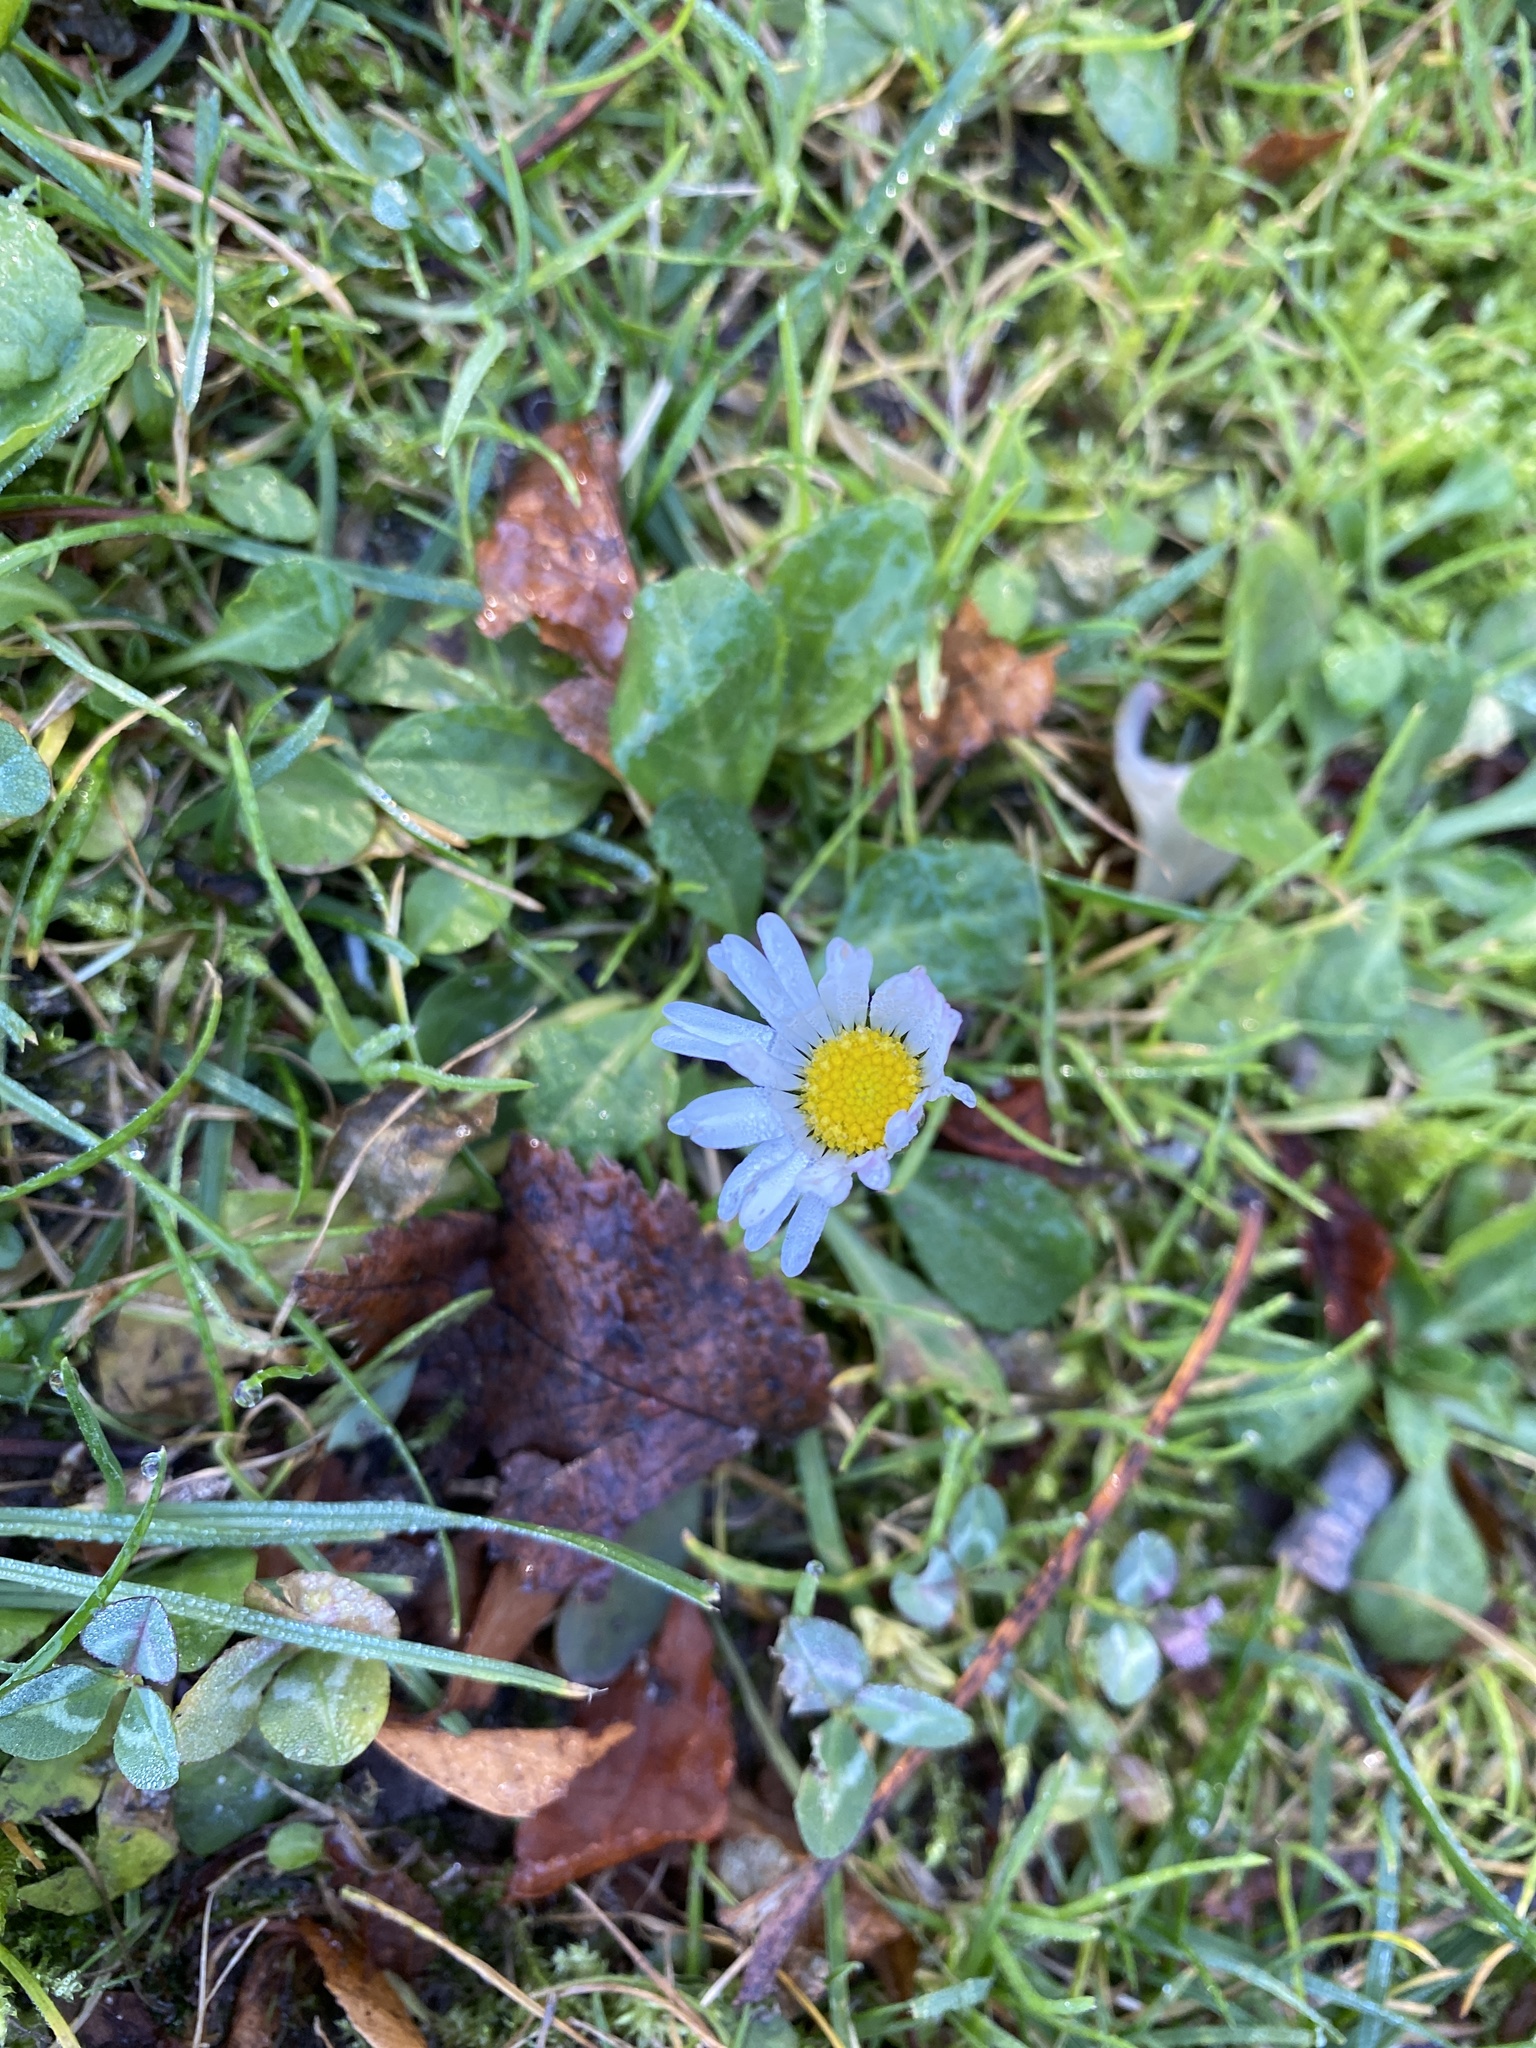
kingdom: Plantae
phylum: Tracheophyta
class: Magnoliopsida
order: Asterales
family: Asteraceae
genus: Bellis
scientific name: Bellis perennis
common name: Lawndaisy
